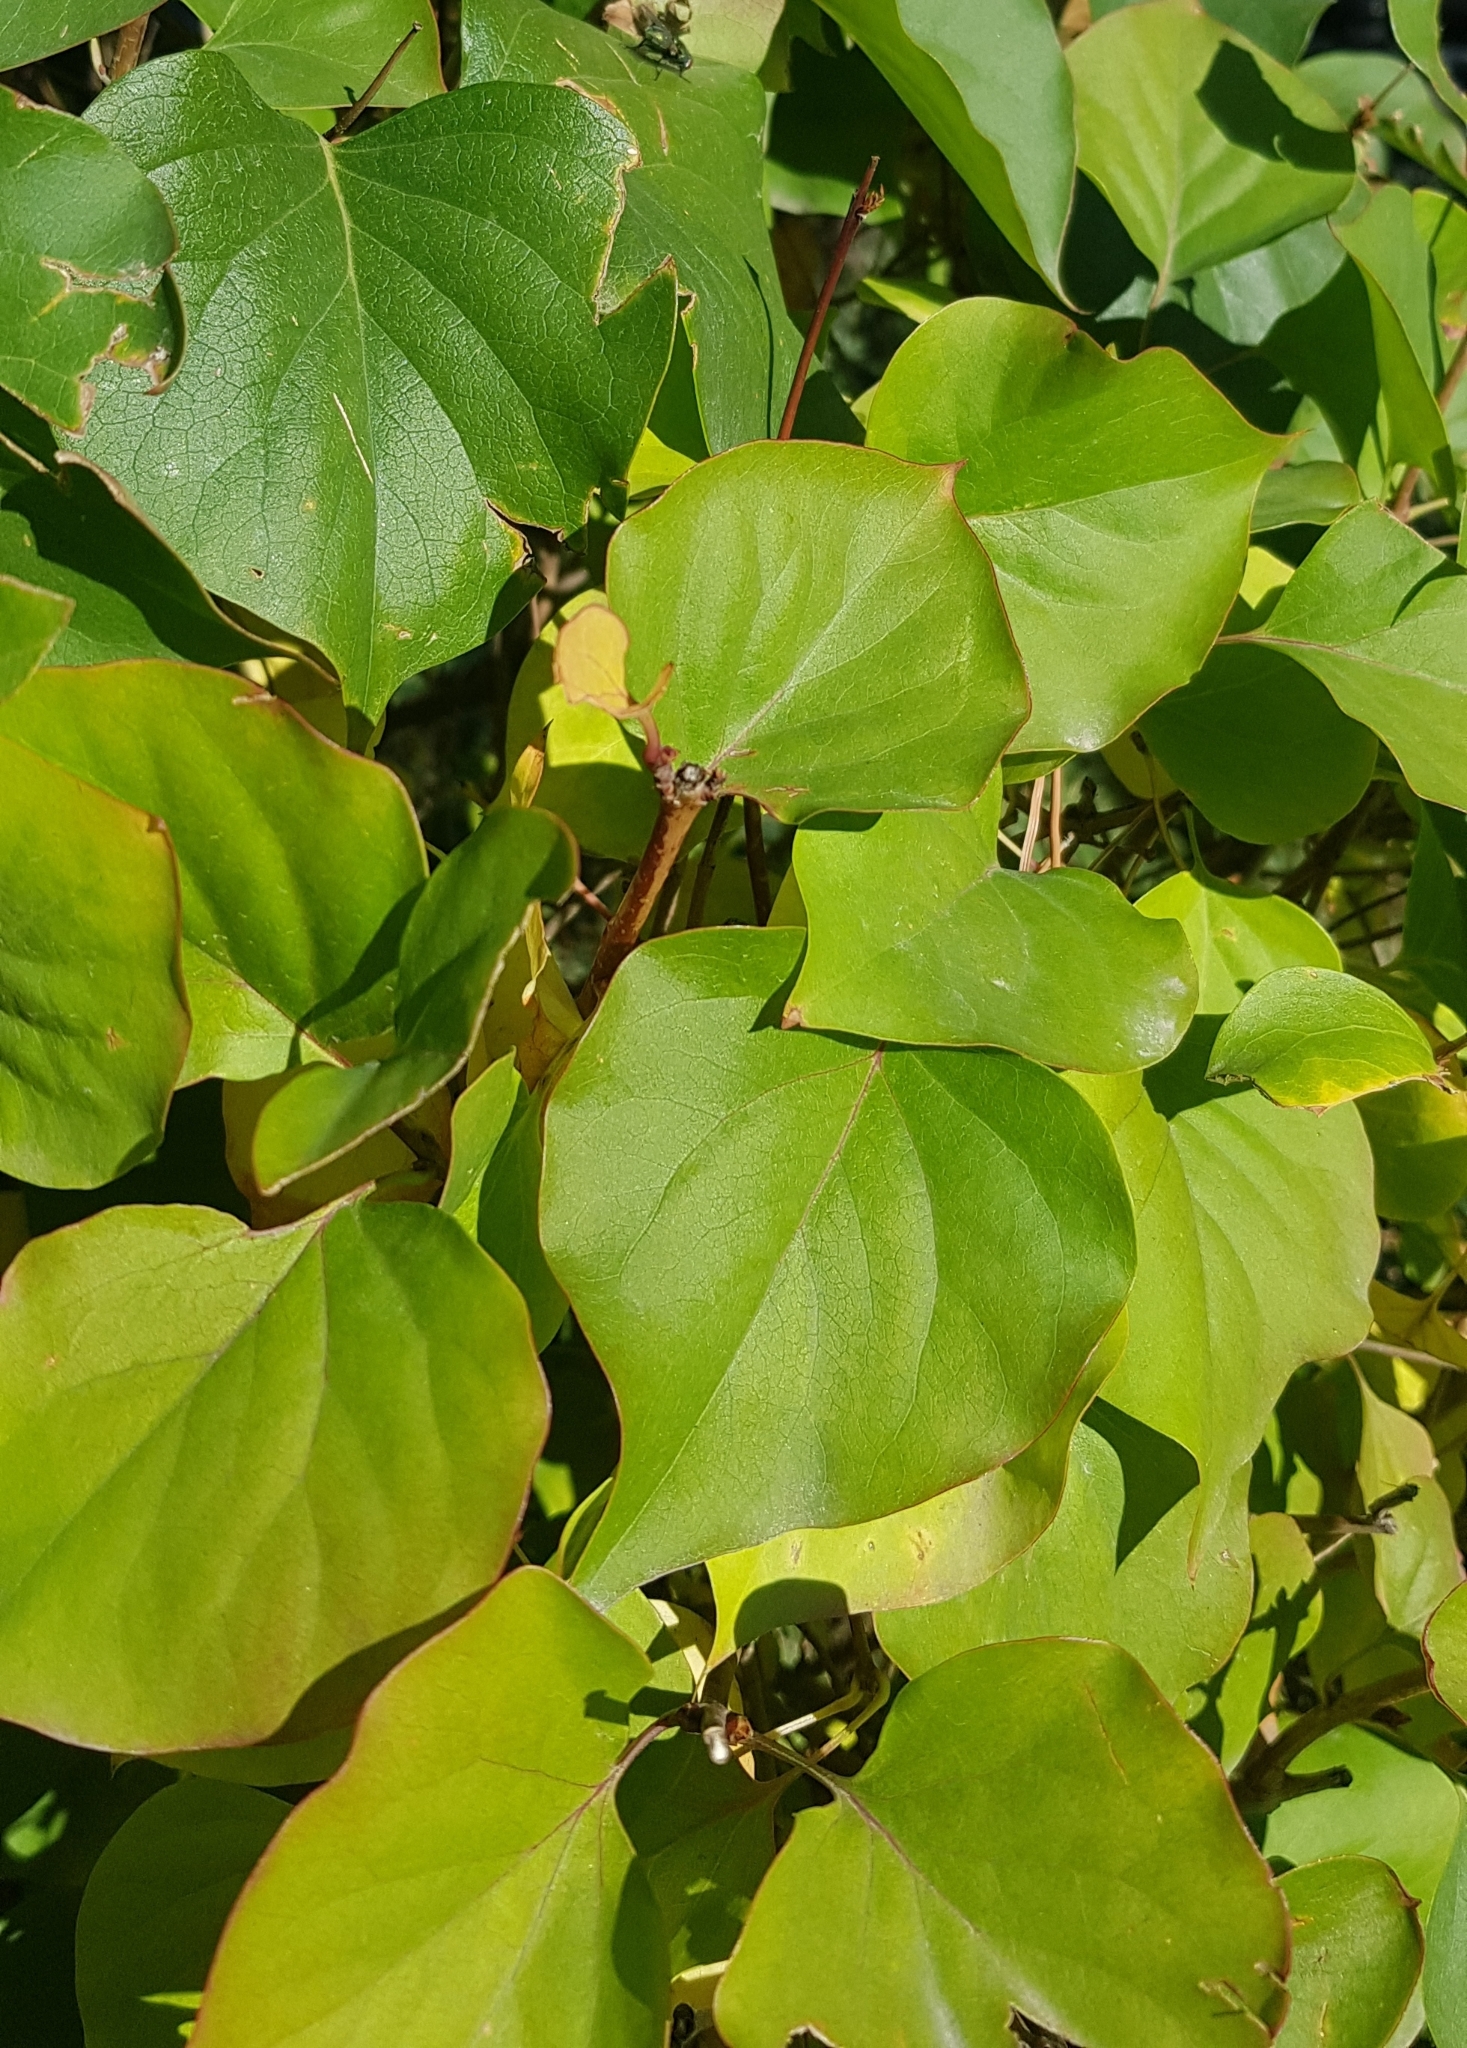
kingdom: Plantae
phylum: Tracheophyta
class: Magnoliopsida
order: Rosales
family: Rosaceae
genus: Prunus
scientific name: Prunus armeniaca
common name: Apricot
